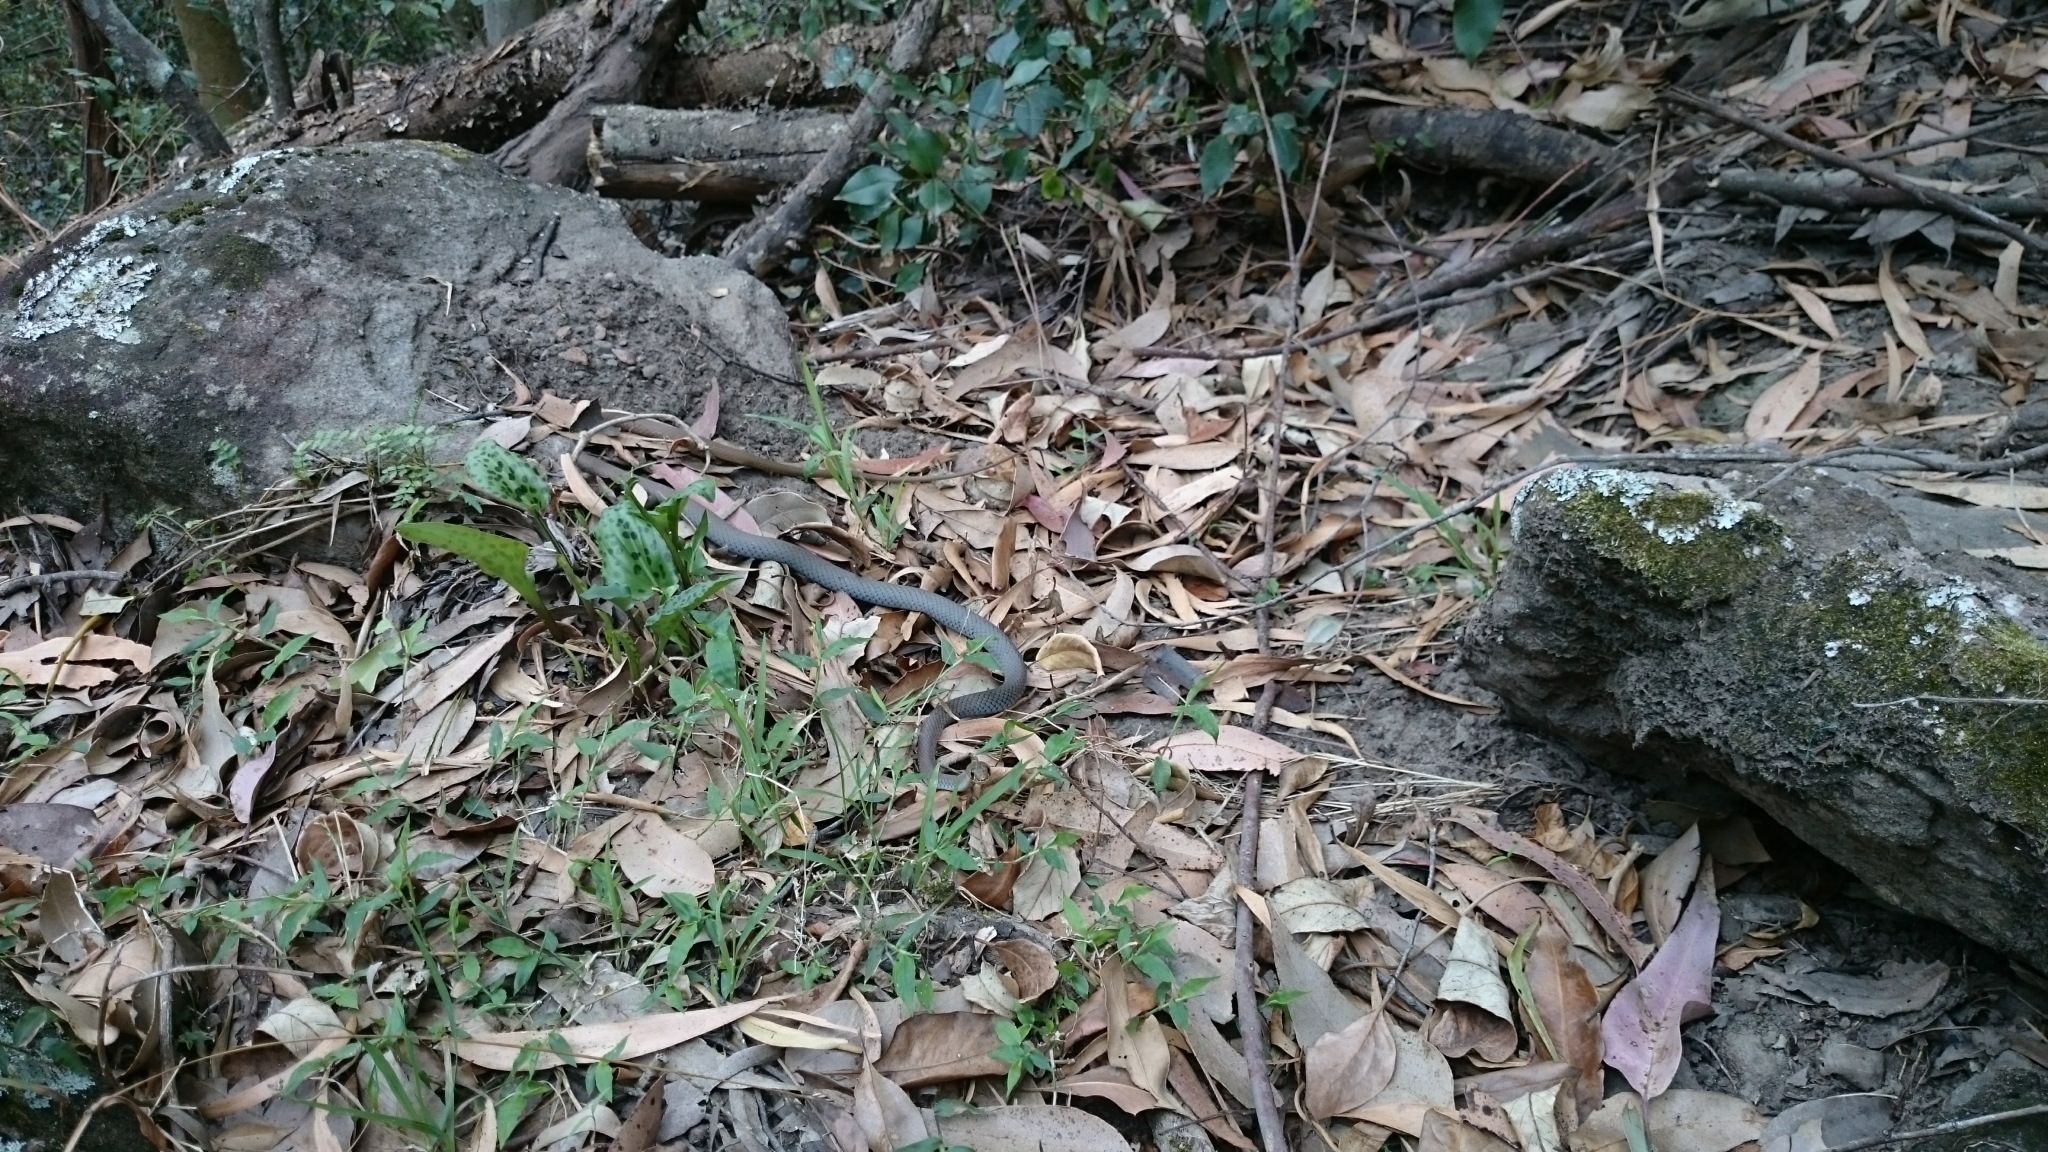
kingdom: Animalia
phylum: Chordata
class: Squamata
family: Elapidae
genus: Demansia
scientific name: Demansia psammophis
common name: Yellow-faced whip snake
